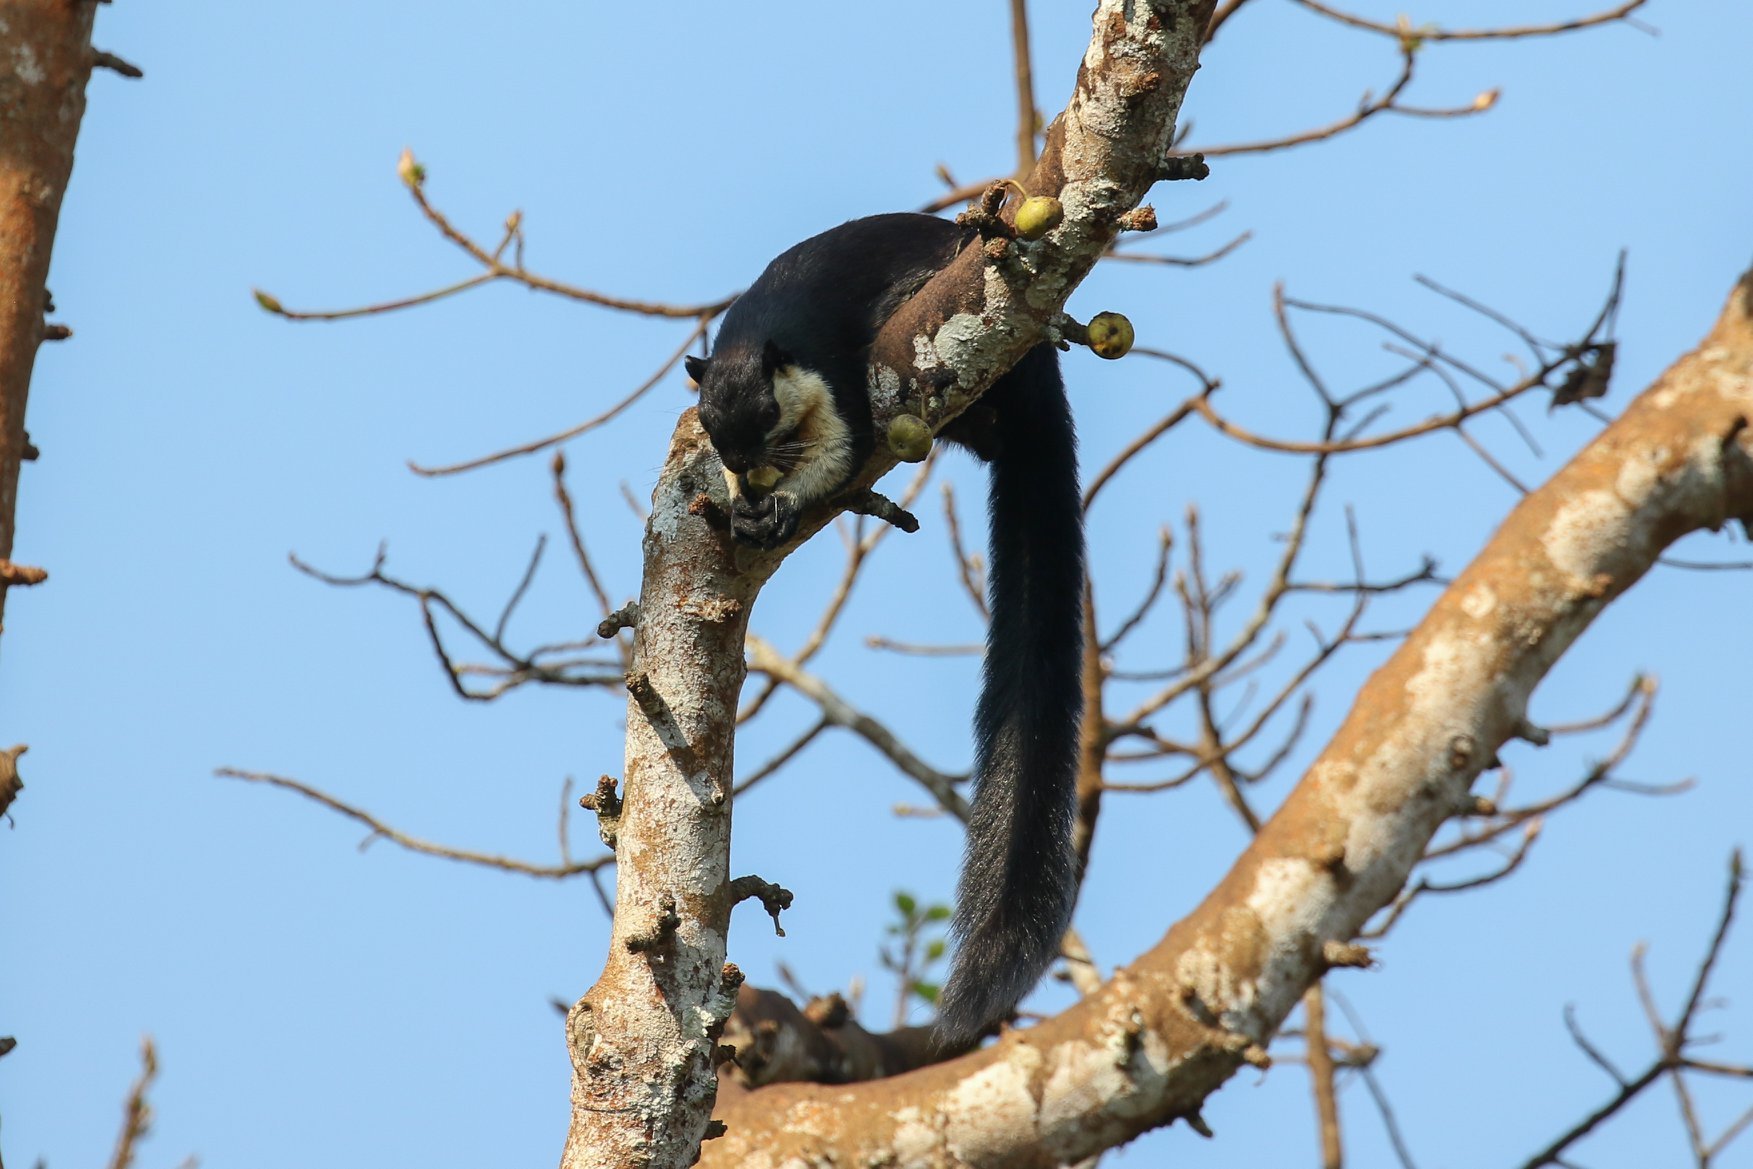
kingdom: Animalia
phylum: Chordata
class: Mammalia
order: Rodentia
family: Sciuridae
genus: Ratufa
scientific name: Ratufa bicolor
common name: Black giant squirrel
